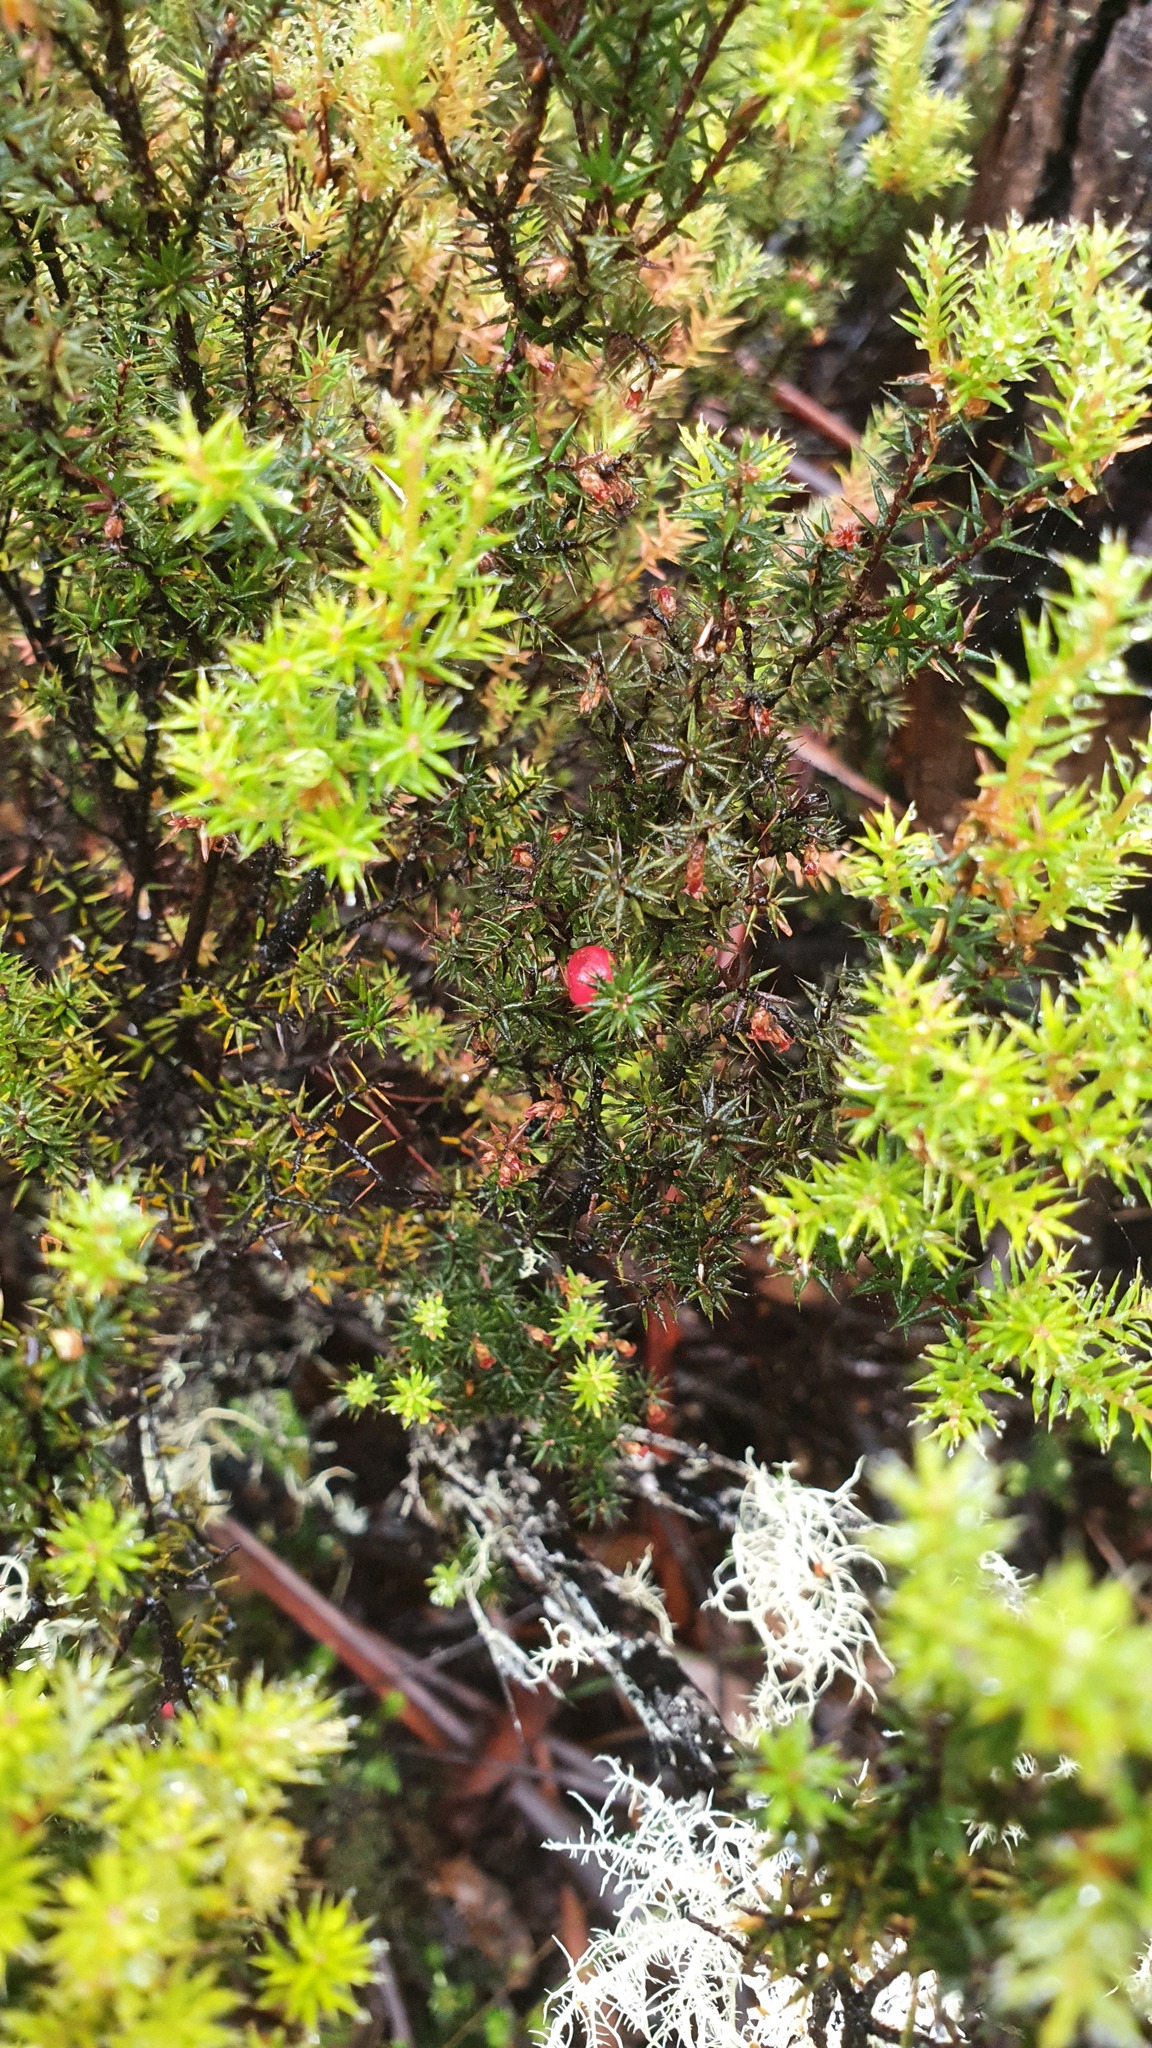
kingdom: Plantae
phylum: Tracheophyta
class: Magnoliopsida
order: Ericales
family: Ericaceae
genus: Leptecophylla
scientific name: Leptecophylla parvifolia
